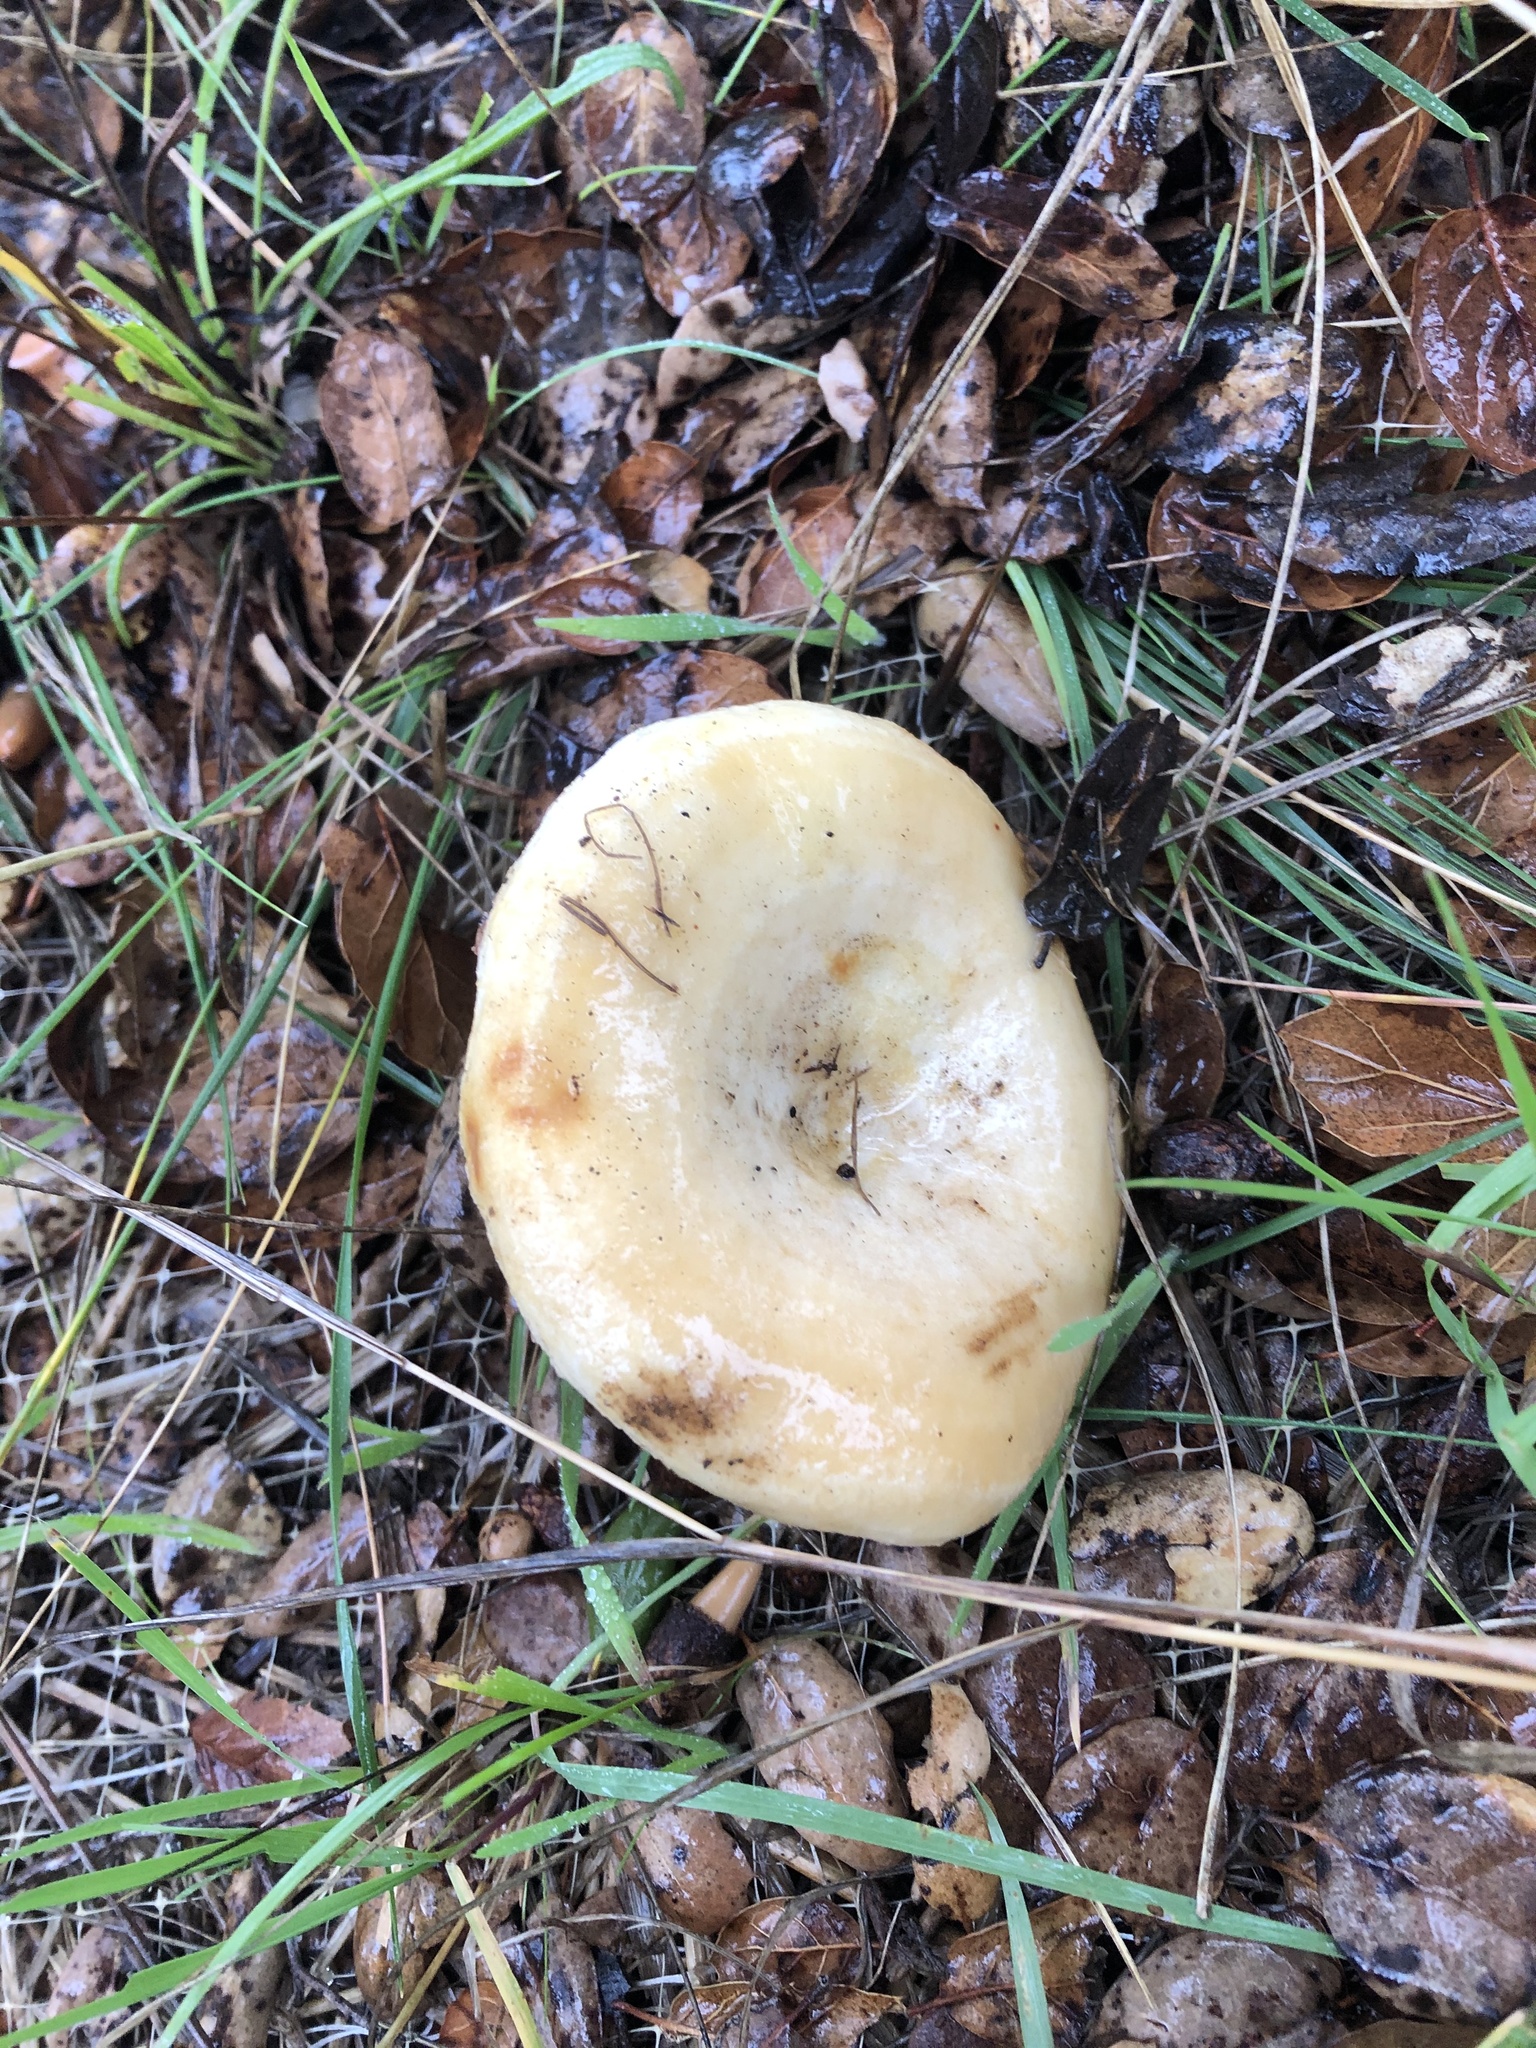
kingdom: Fungi
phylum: Basidiomycota
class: Agaricomycetes
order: Russulales
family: Russulaceae
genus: Lactarius
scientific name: Lactarius alnicola
